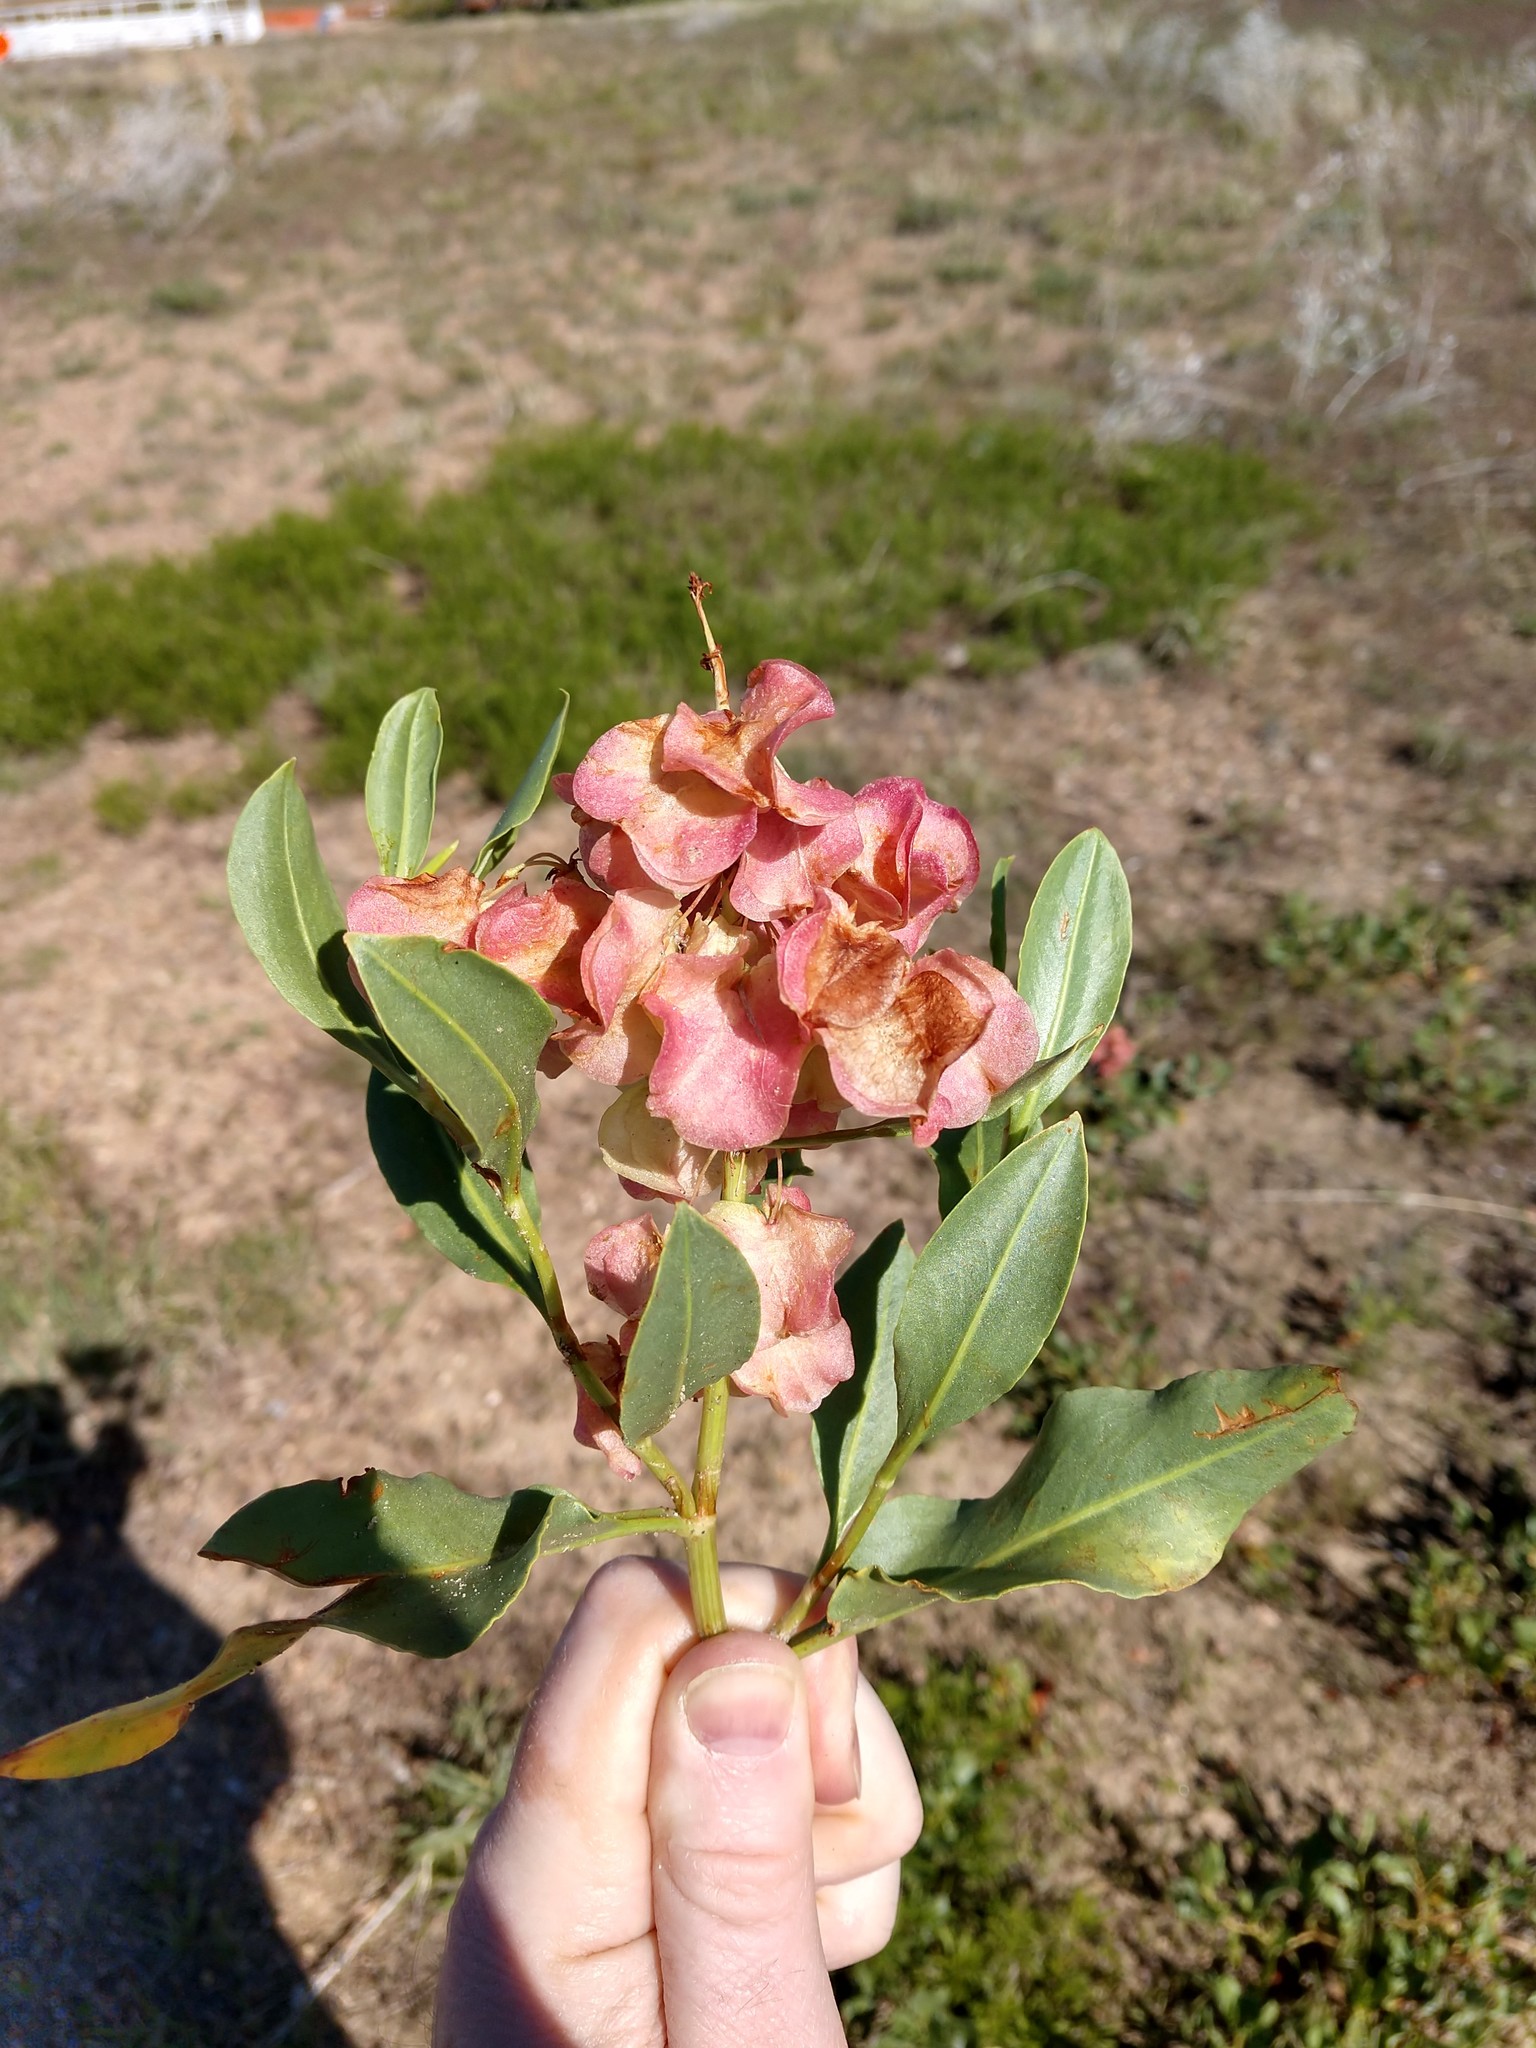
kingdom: Plantae
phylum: Tracheophyta
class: Magnoliopsida
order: Caryophyllales
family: Polygonaceae
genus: Rumex
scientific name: Rumex venosus
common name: Winged dock
